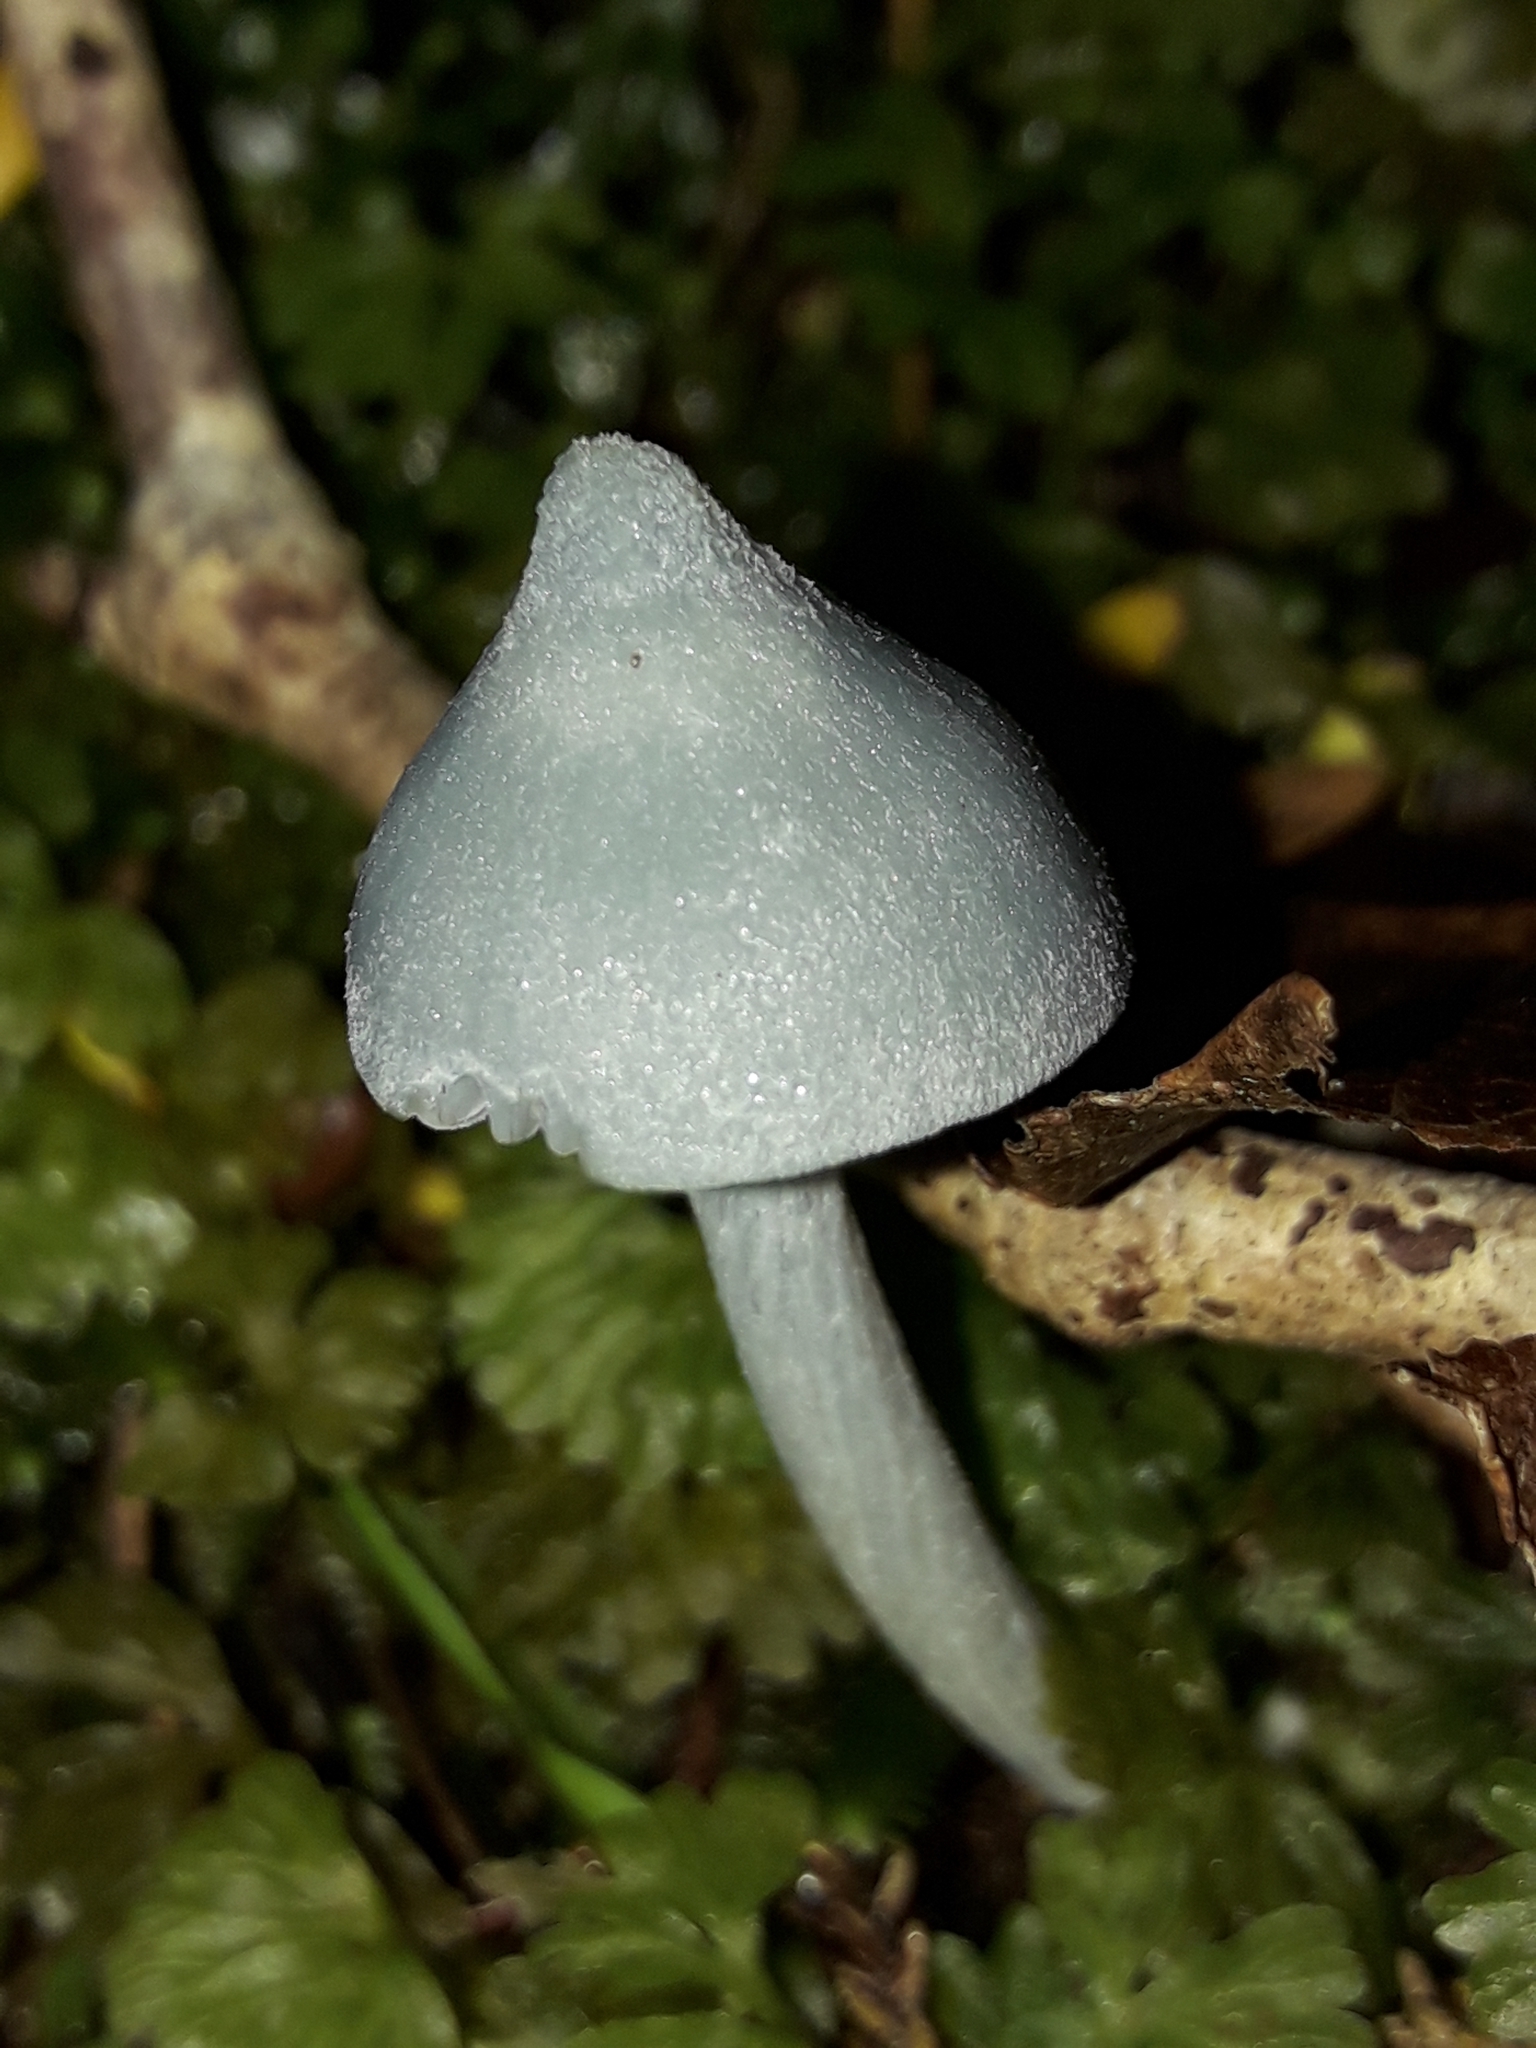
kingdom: Fungi
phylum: Basidiomycota
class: Agaricomycetes
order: Agaricales
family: Entolomataceae
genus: Entoloma
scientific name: Entoloma canoconicum
